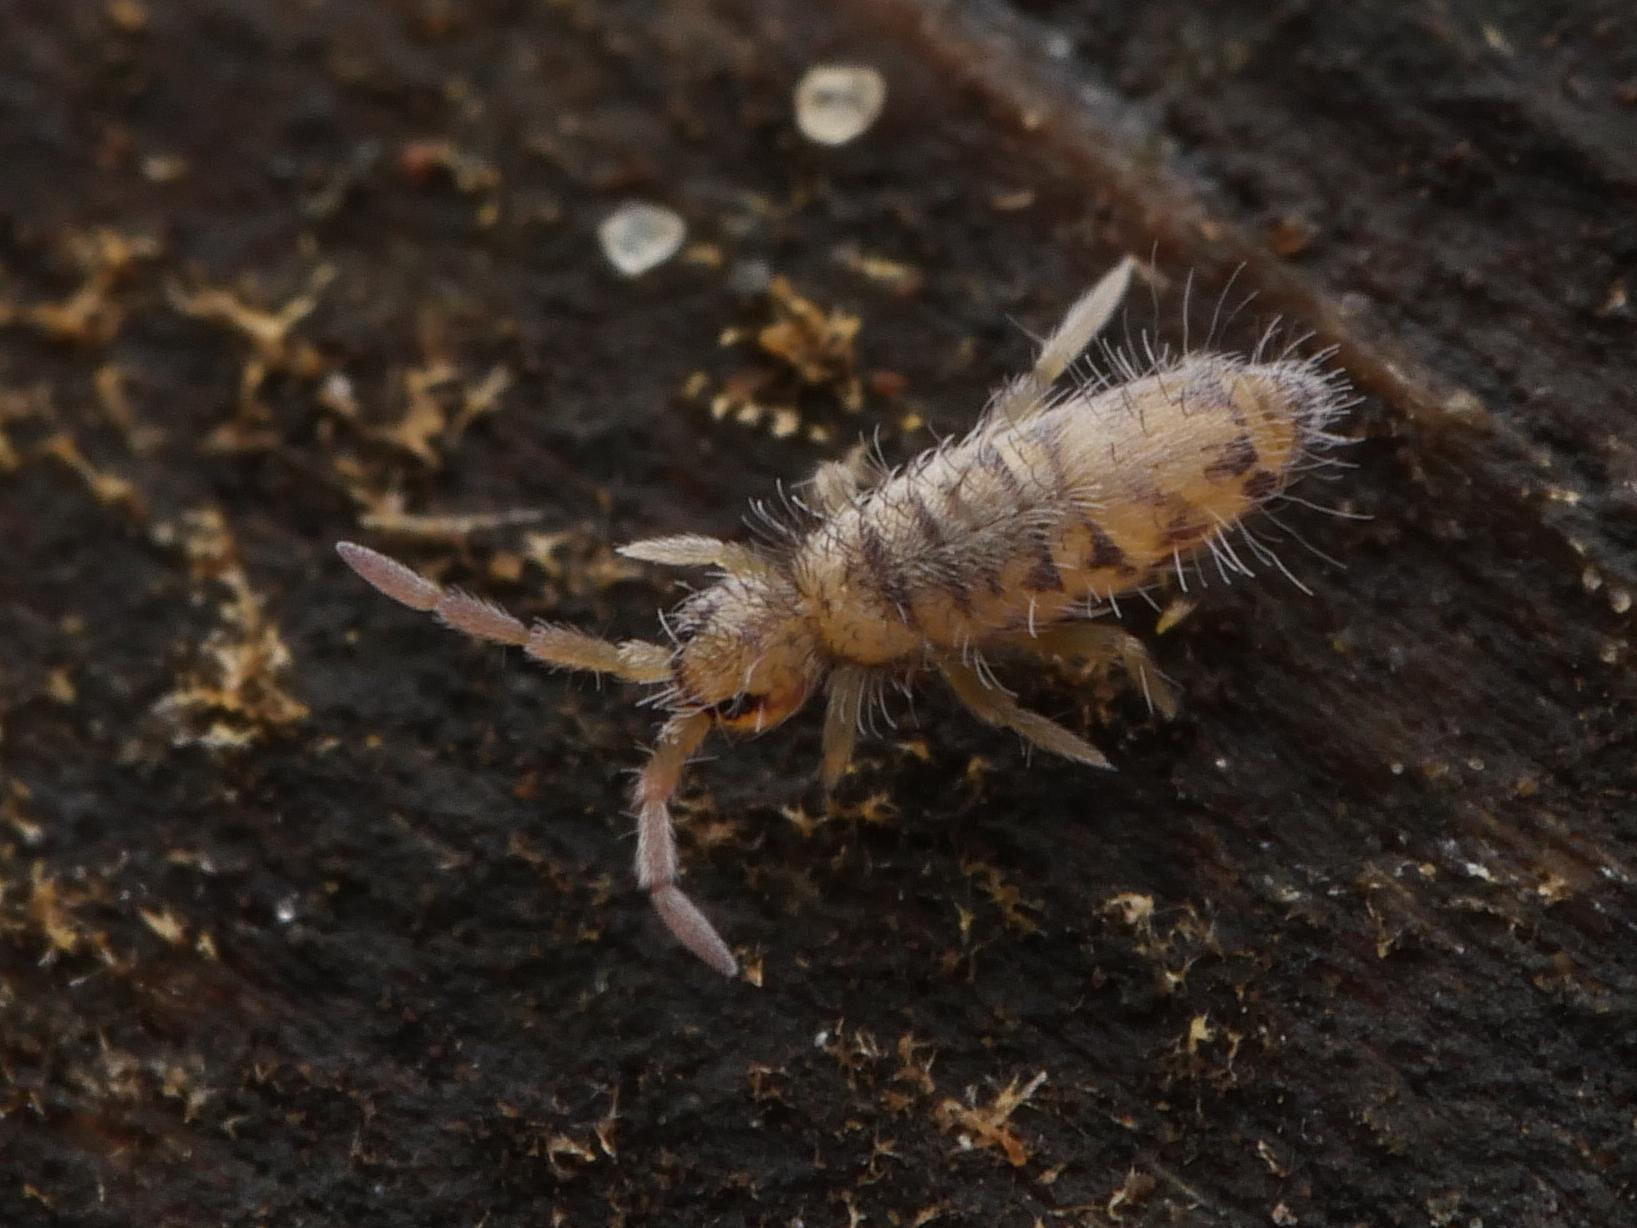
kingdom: Animalia
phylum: Arthropoda
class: Collembola
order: Entomobryomorpha
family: Entomobryidae
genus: Entomobrya
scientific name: Entomobrya multifasciata
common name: Springtail
